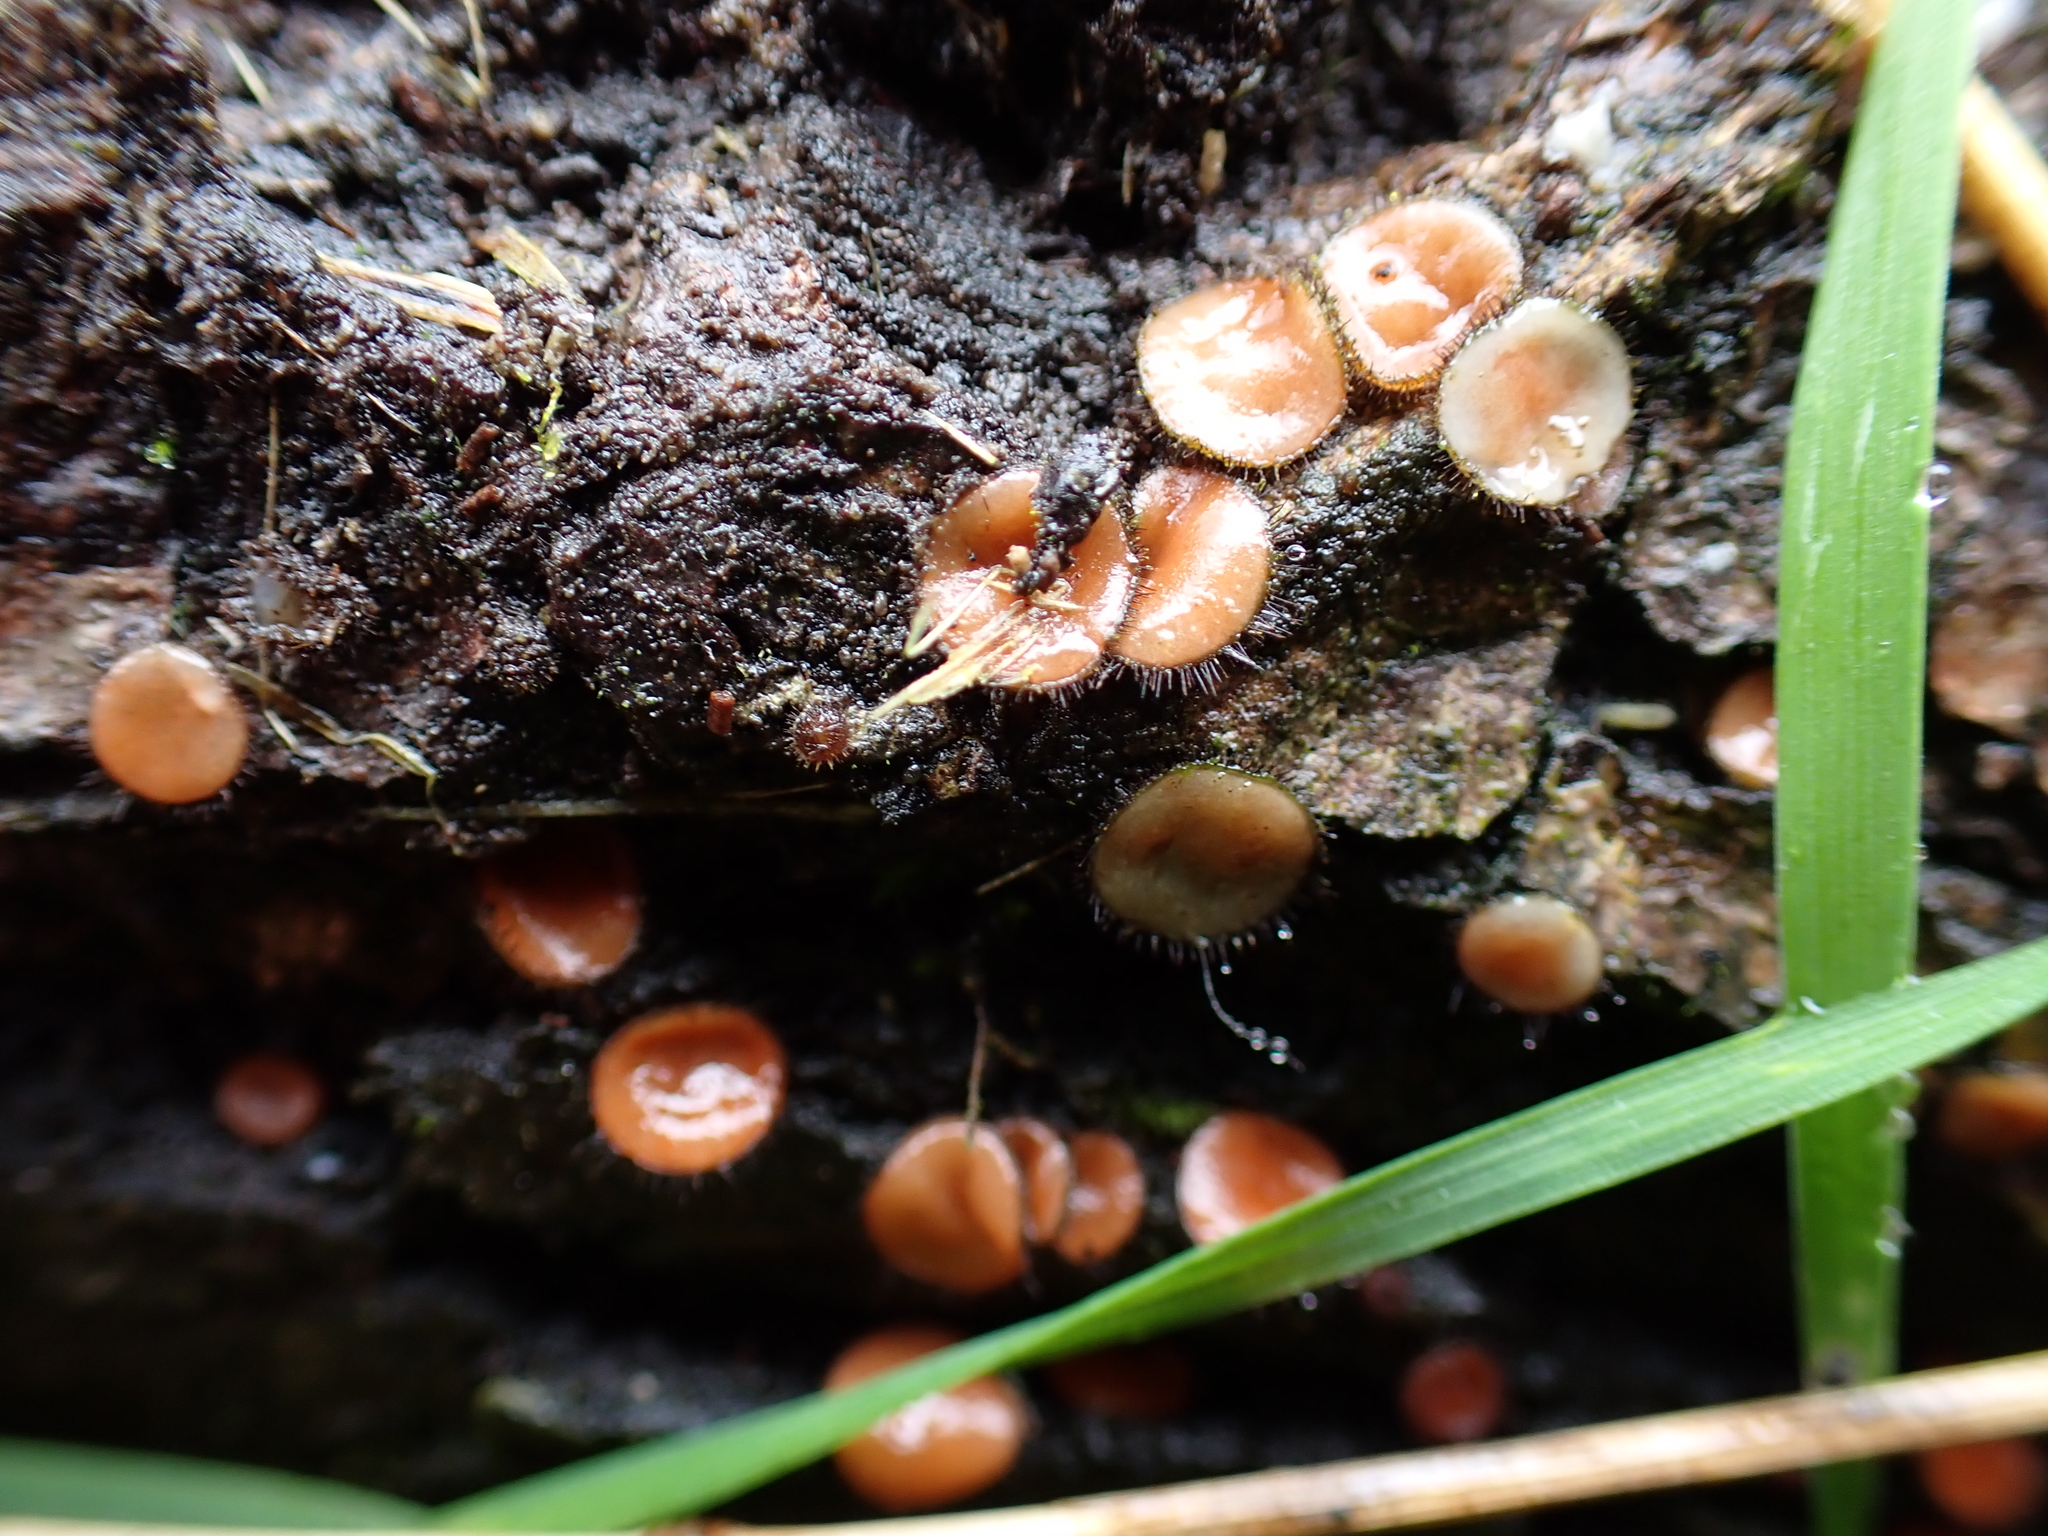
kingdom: Fungi
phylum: Ascomycota
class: Pezizomycetes
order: Pezizales
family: Pyronemataceae
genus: Scutellinia
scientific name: Scutellinia
